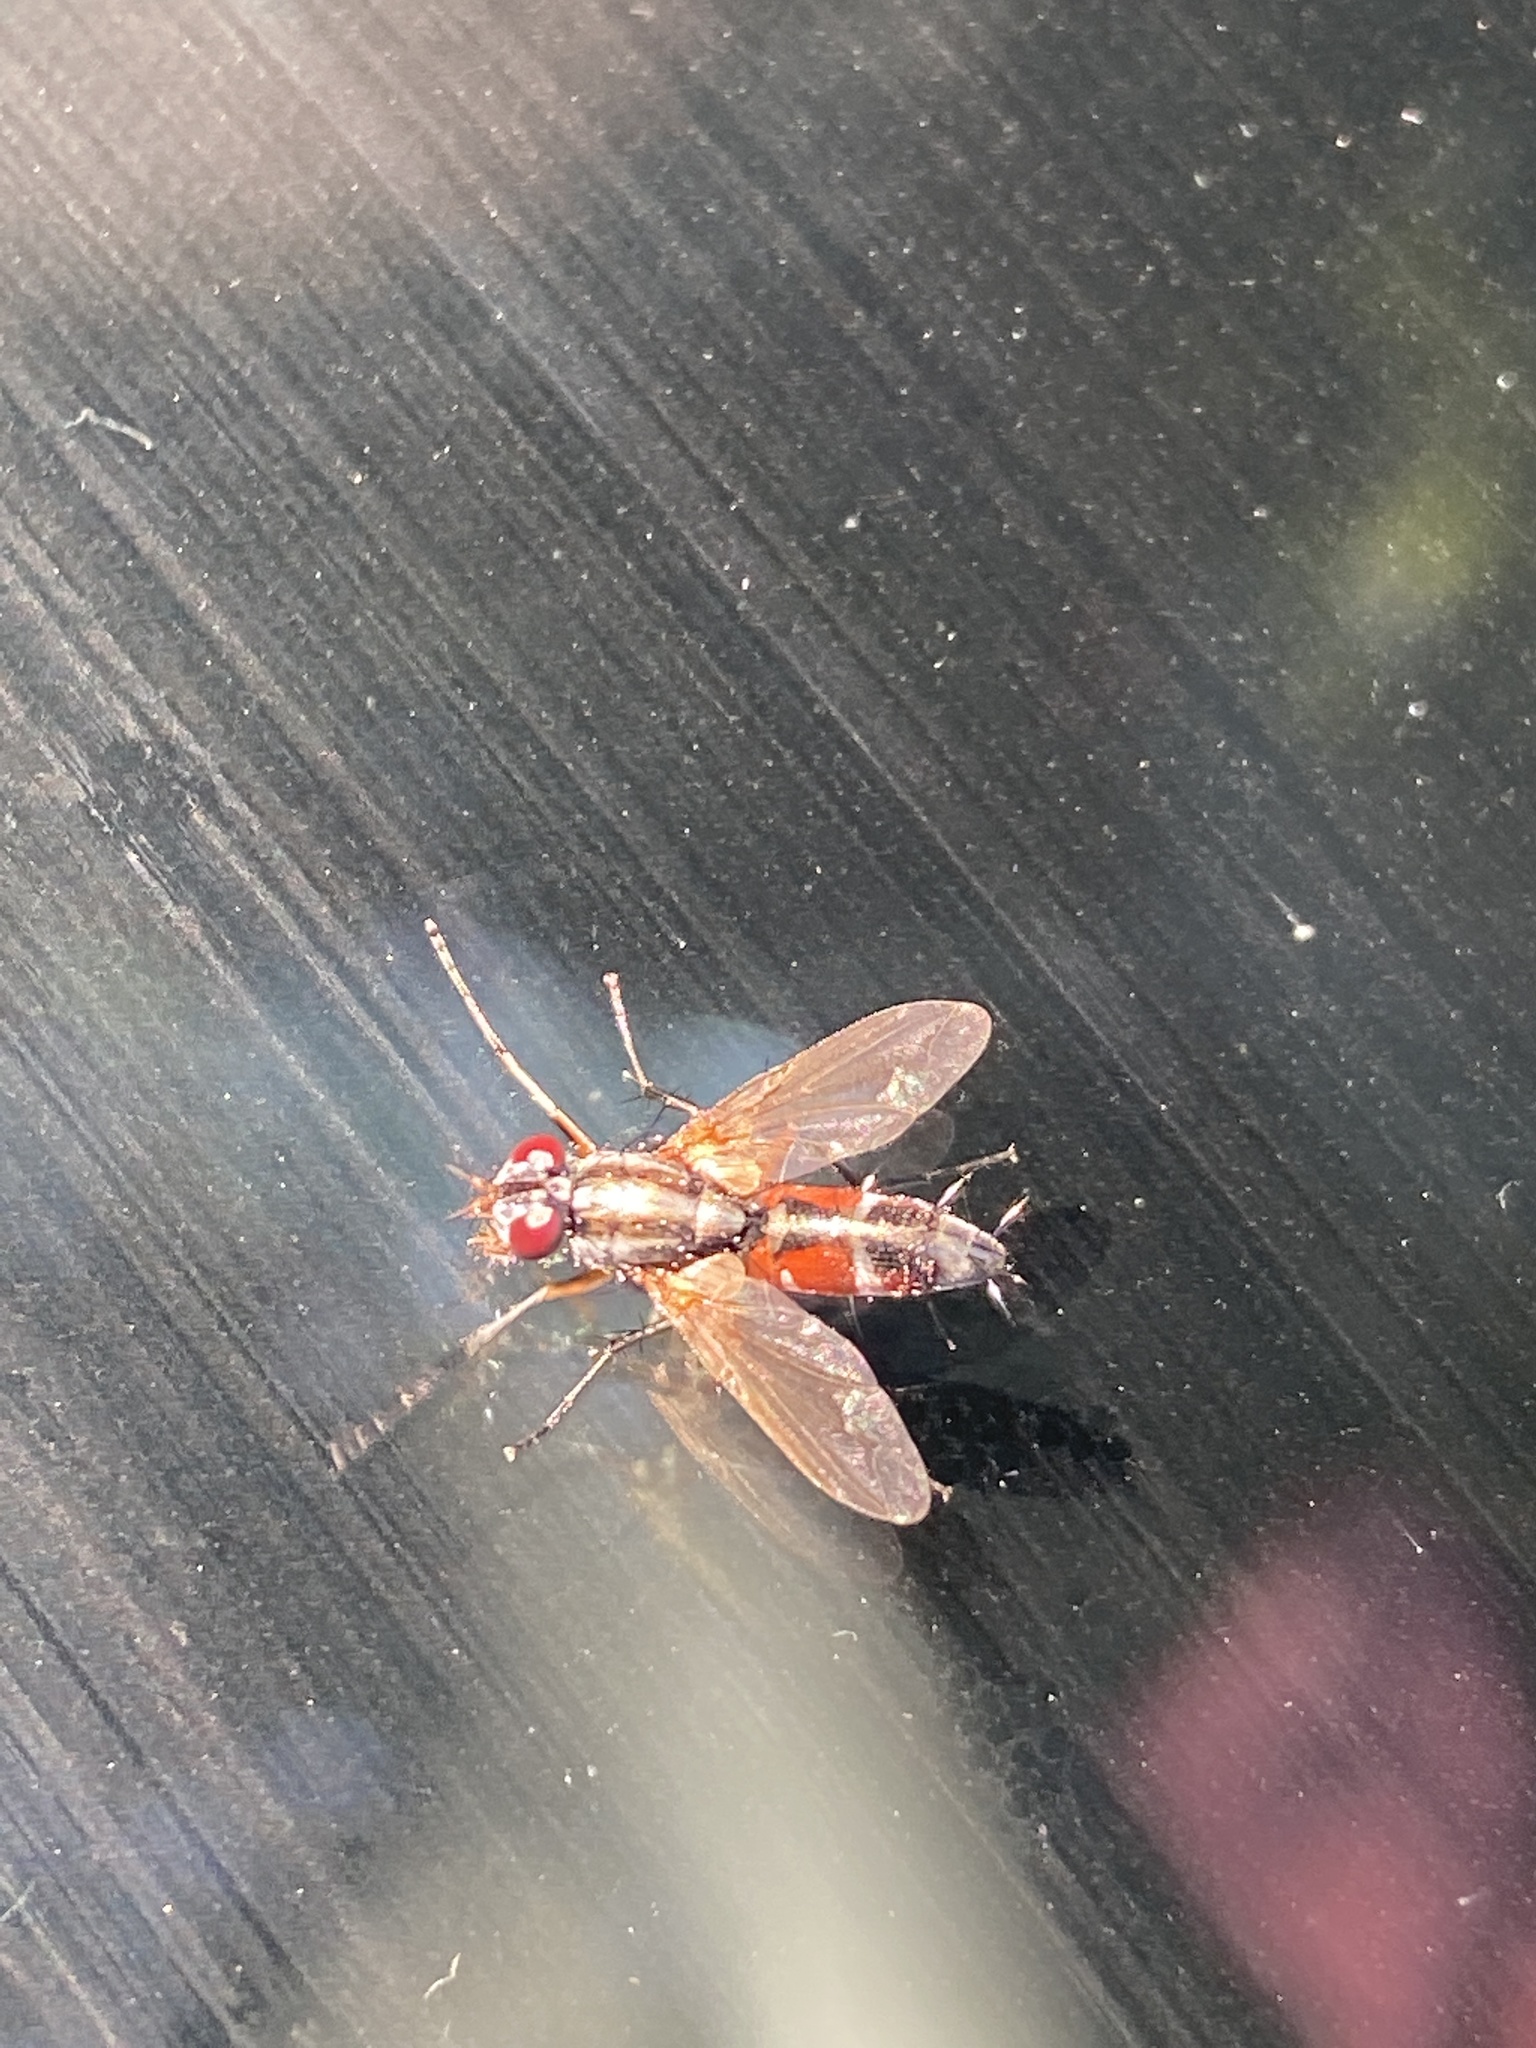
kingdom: Animalia
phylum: Arthropoda
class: Insecta
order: Diptera
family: Tachinidae
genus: Mintho
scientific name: Mintho rufiventris
